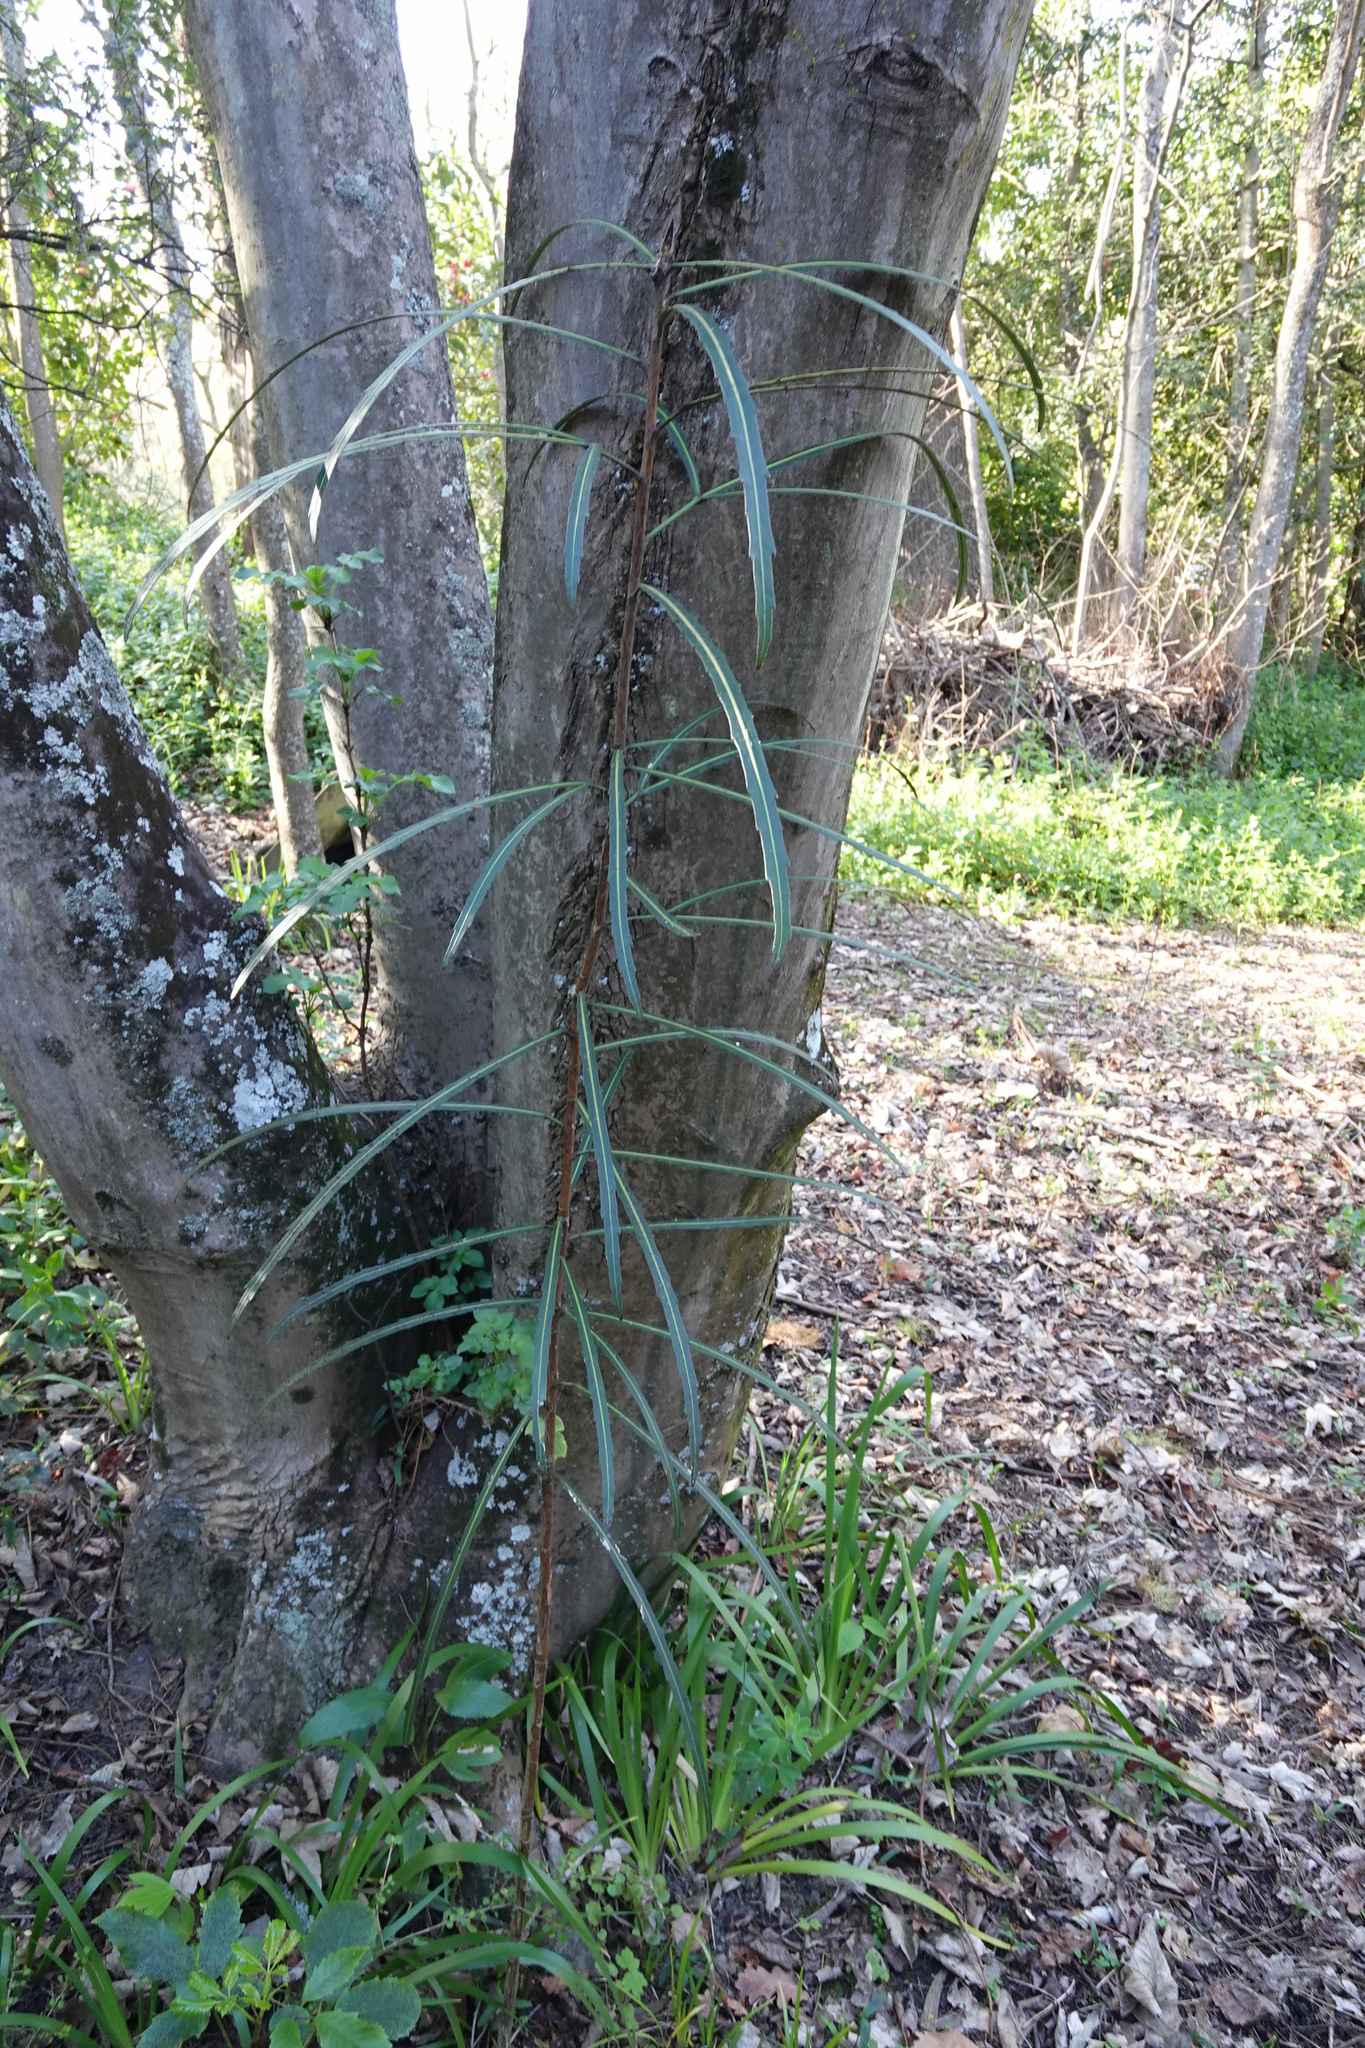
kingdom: Plantae
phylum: Tracheophyta
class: Magnoliopsida
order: Apiales
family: Araliaceae
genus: Pseudopanax
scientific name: Pseudopanax
